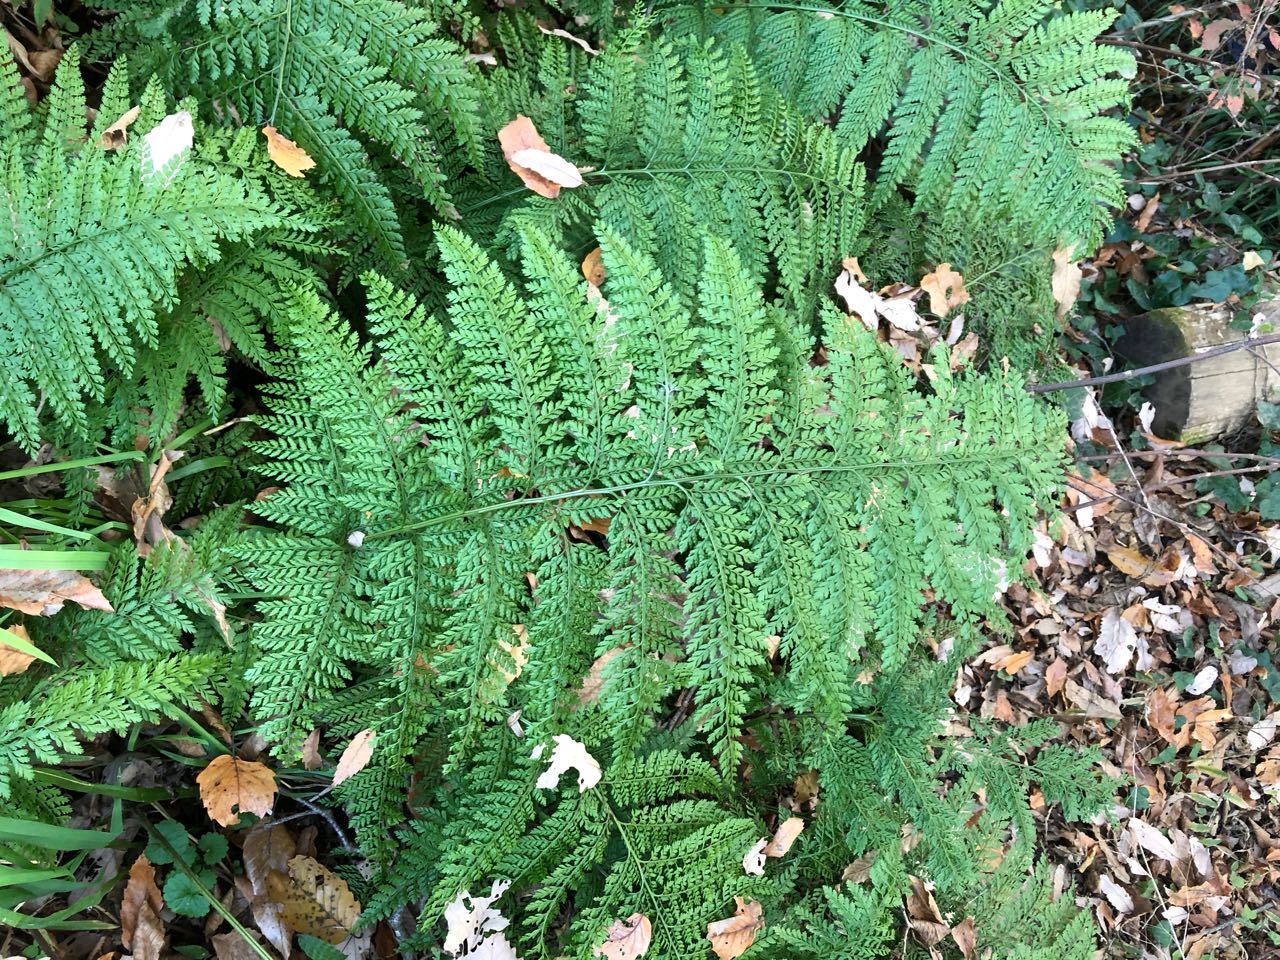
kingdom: Plantae
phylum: Tracheophyta
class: Polypodiopsida
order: Polypodiales
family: Dryopteridaceae
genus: Arachniodes
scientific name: Arachniodes standishii
